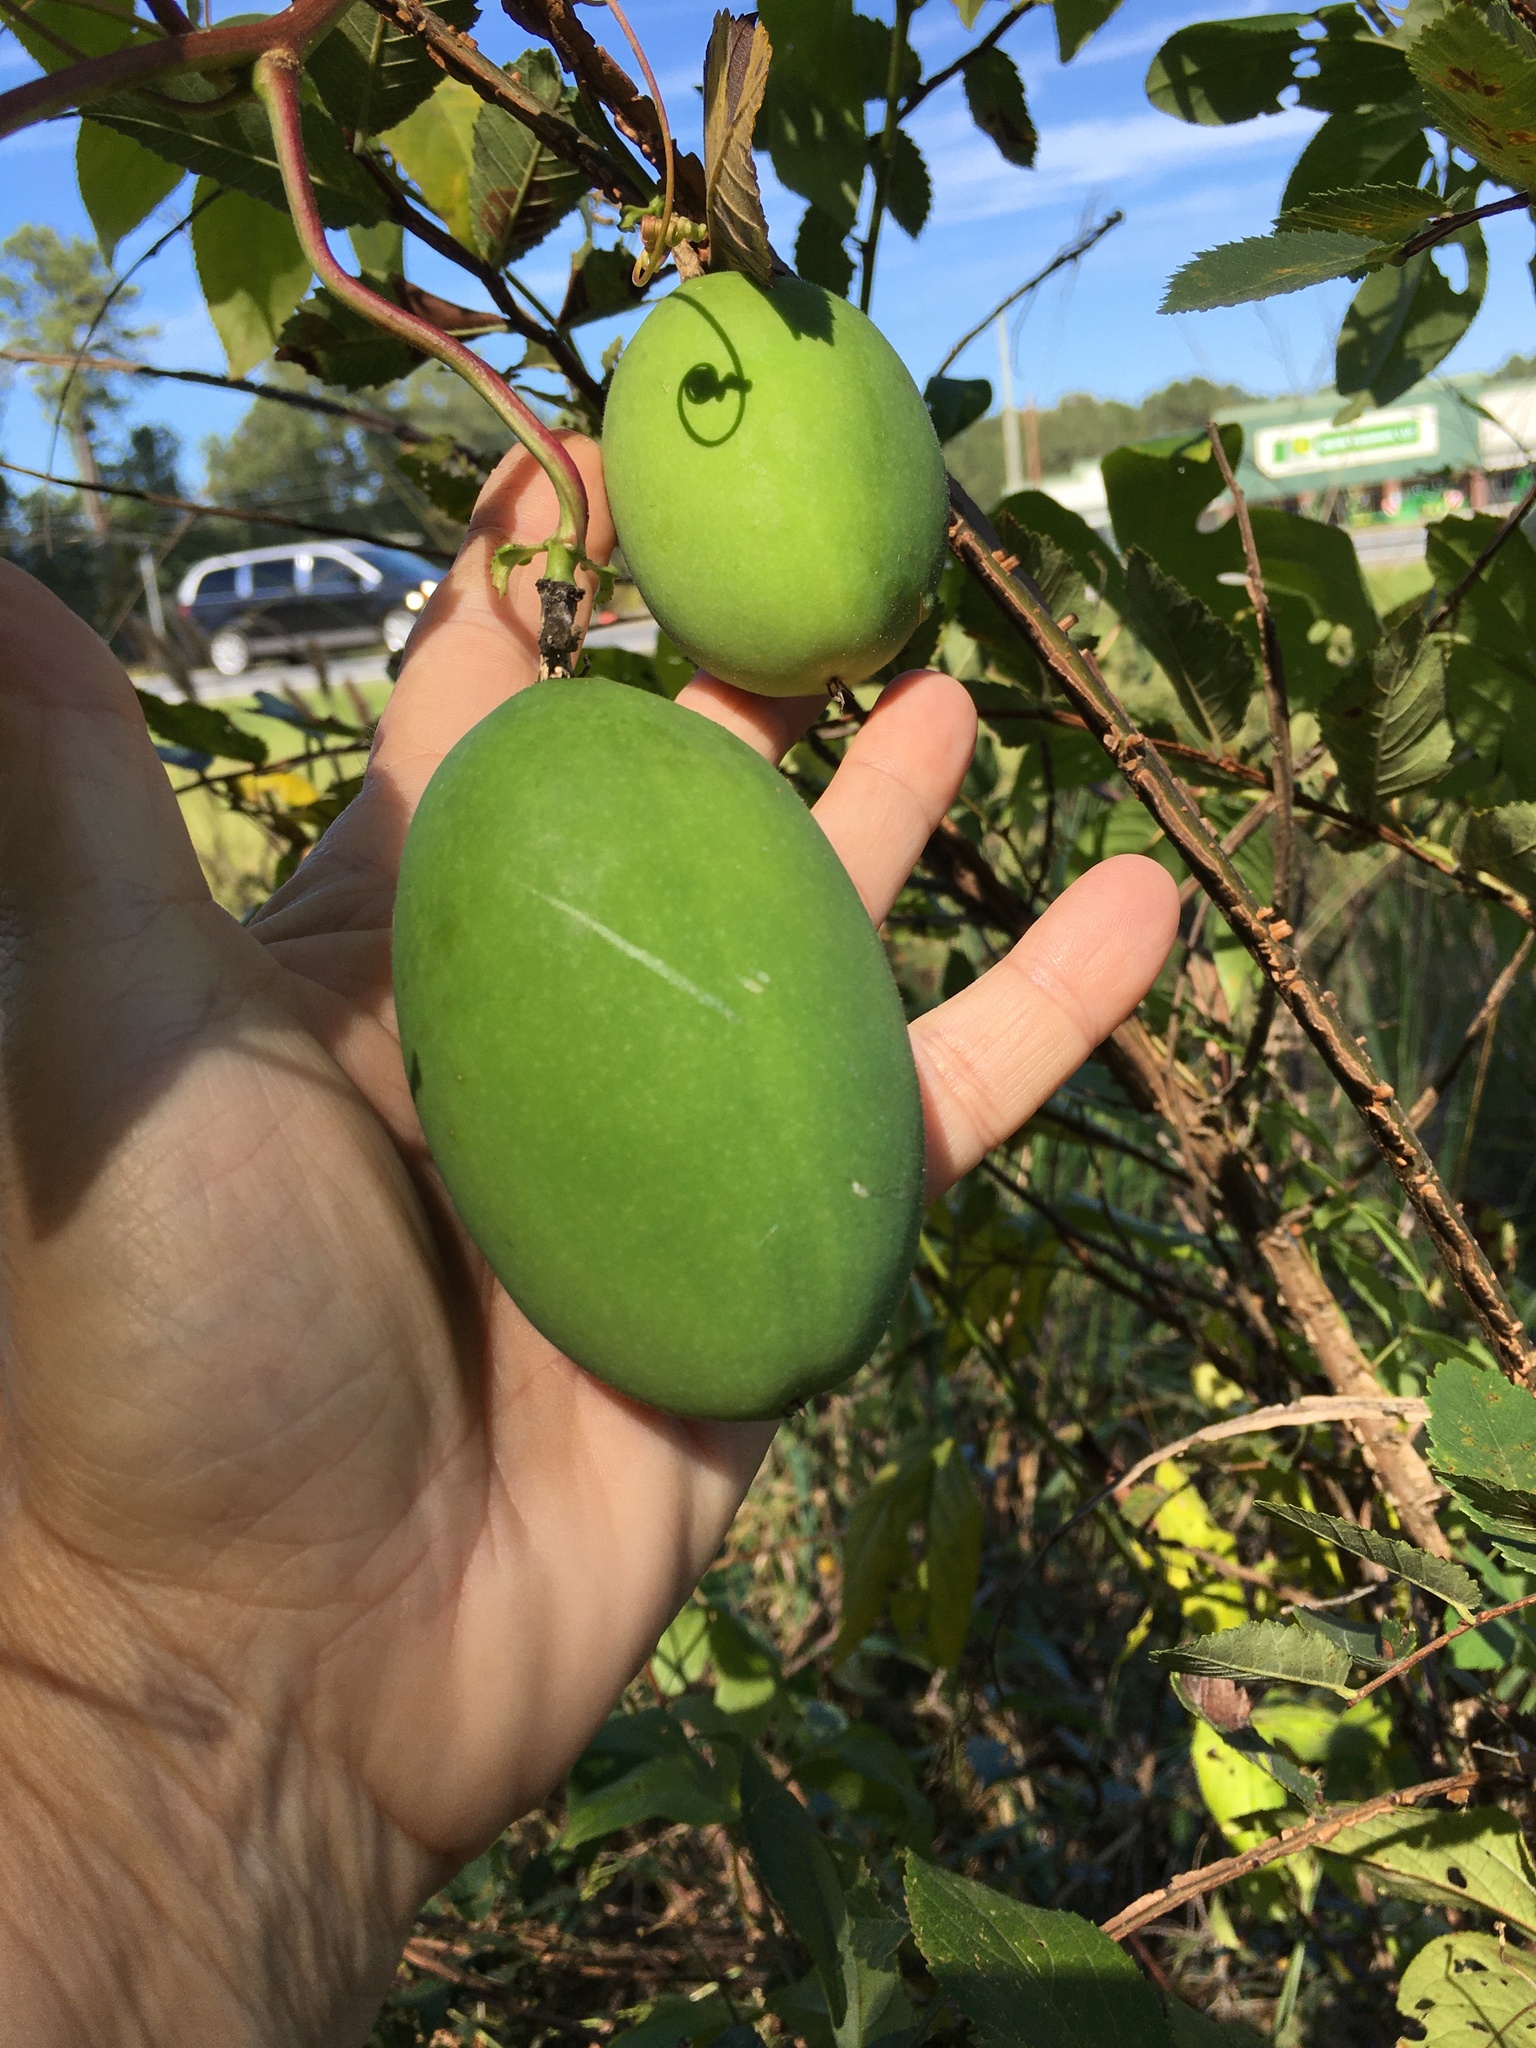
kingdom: Plantae
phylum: Tracheophyta
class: Magnoliopsida
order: Malpighiales
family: Passifloraceae
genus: Passiflora
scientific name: Passiflora incarnata
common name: Apricot-vine
